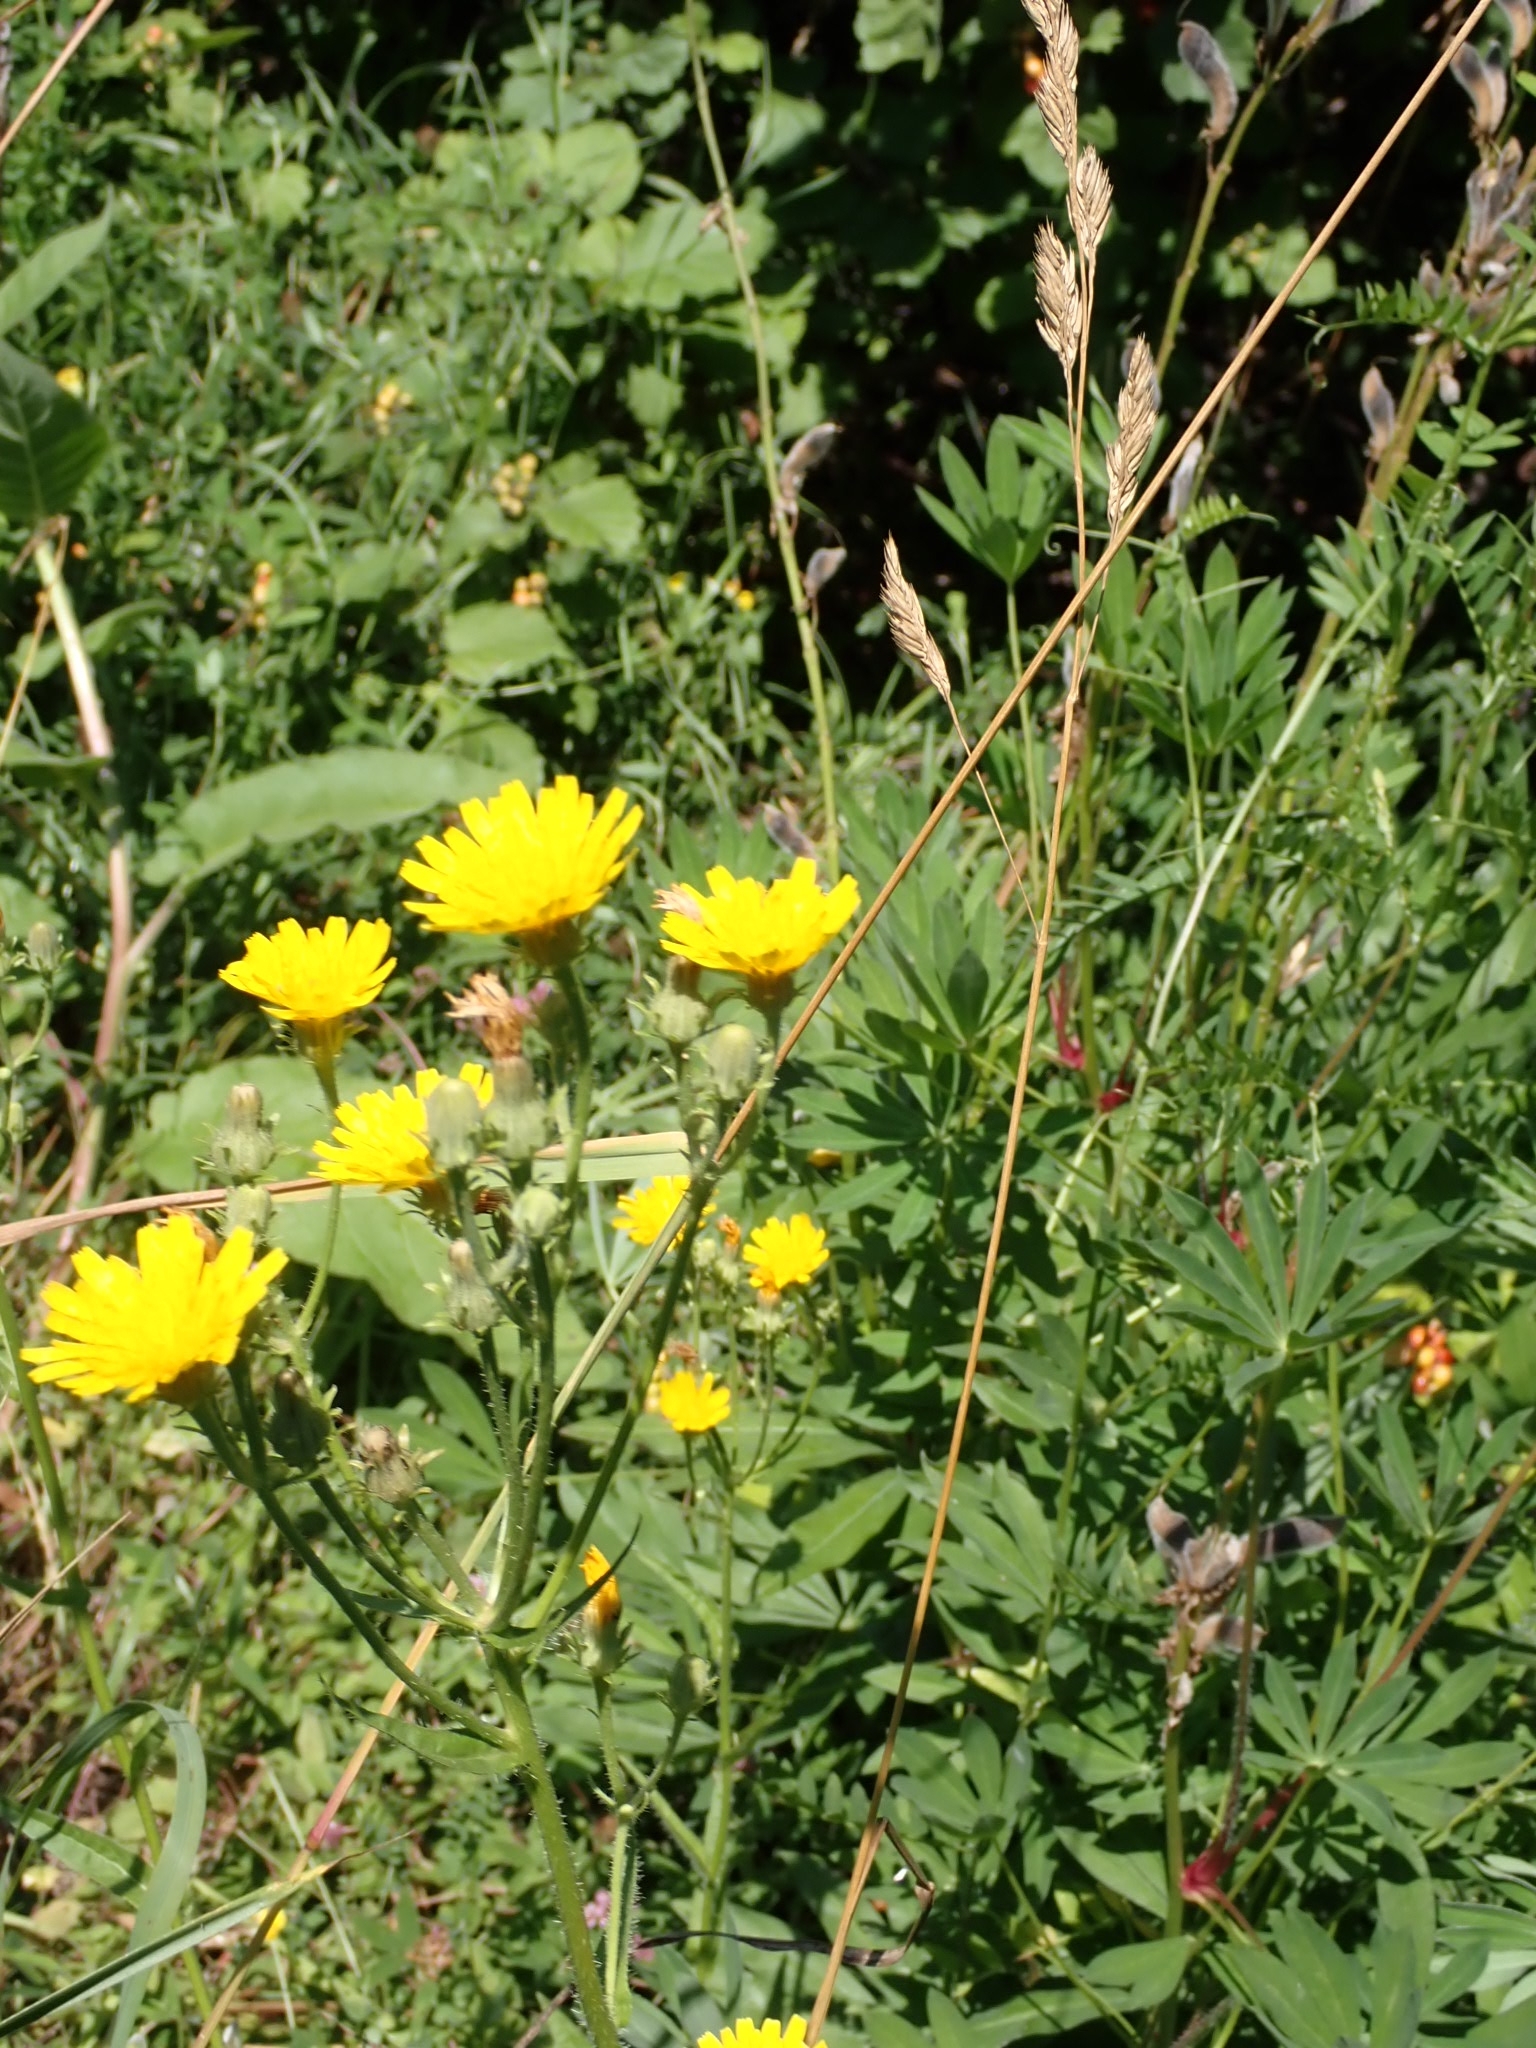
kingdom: Plantae
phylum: Tracheophyta
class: Magnoliopsida
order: Asterales
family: Asteraceae
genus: Picris
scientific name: Picris hieracioides
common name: Hawkweed oxtongue
